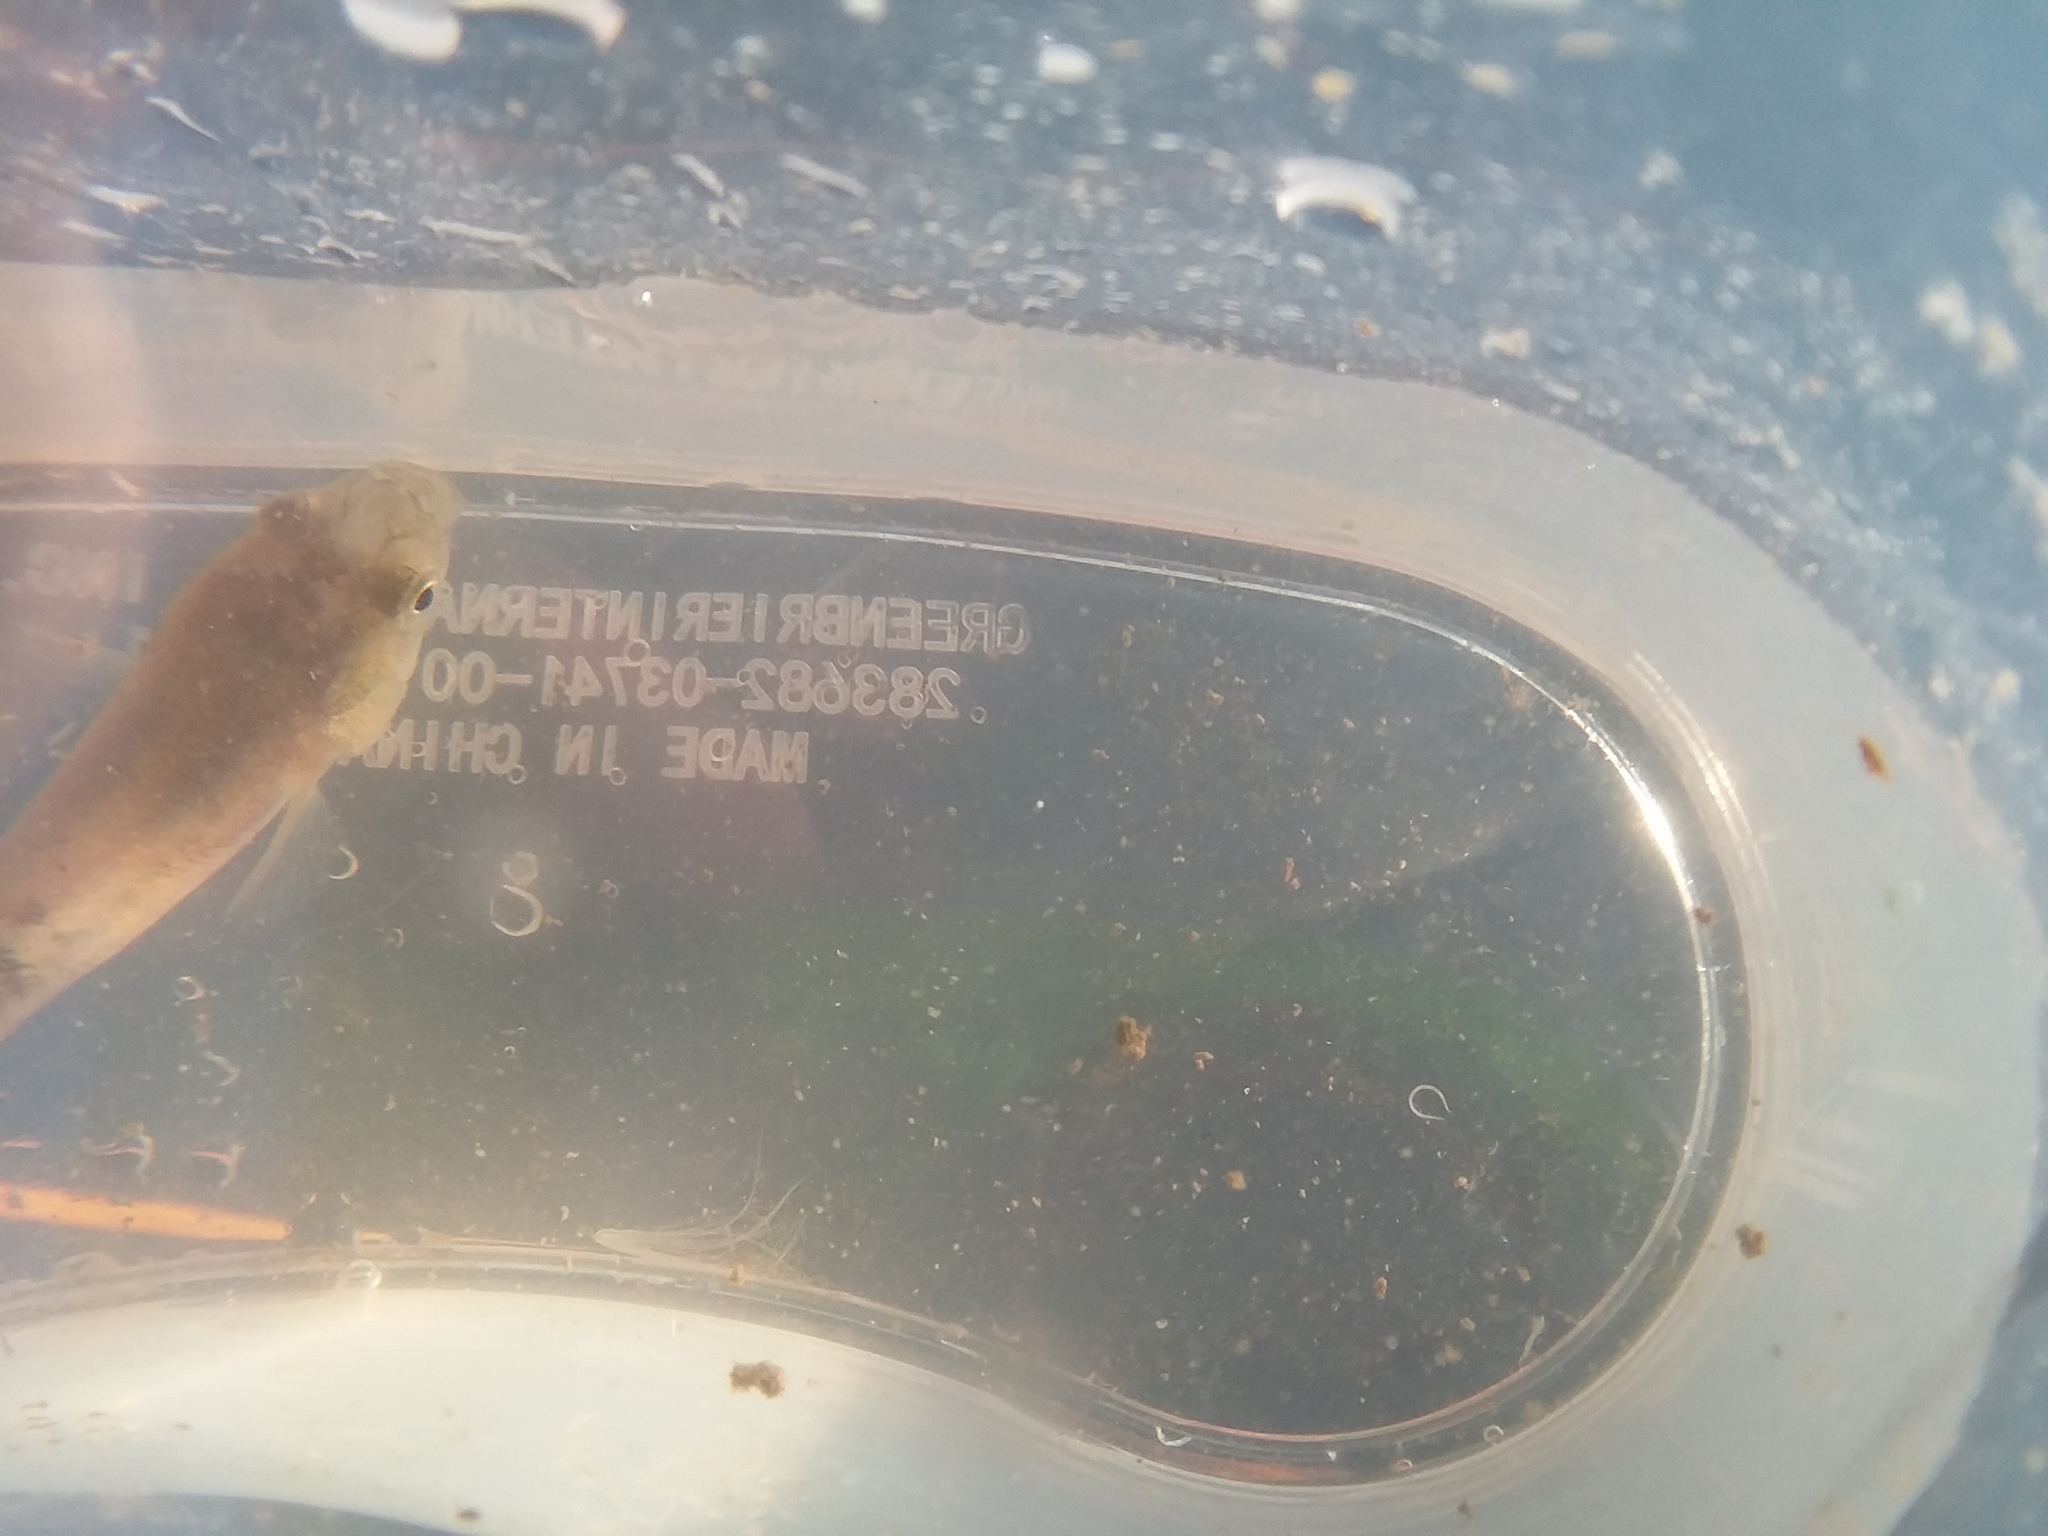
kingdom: Animalia
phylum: Chordata
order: Cyprinodontiformes
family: Fundulidae
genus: Fundulus
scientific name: Fundulus heteroclitus
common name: Mummichog
